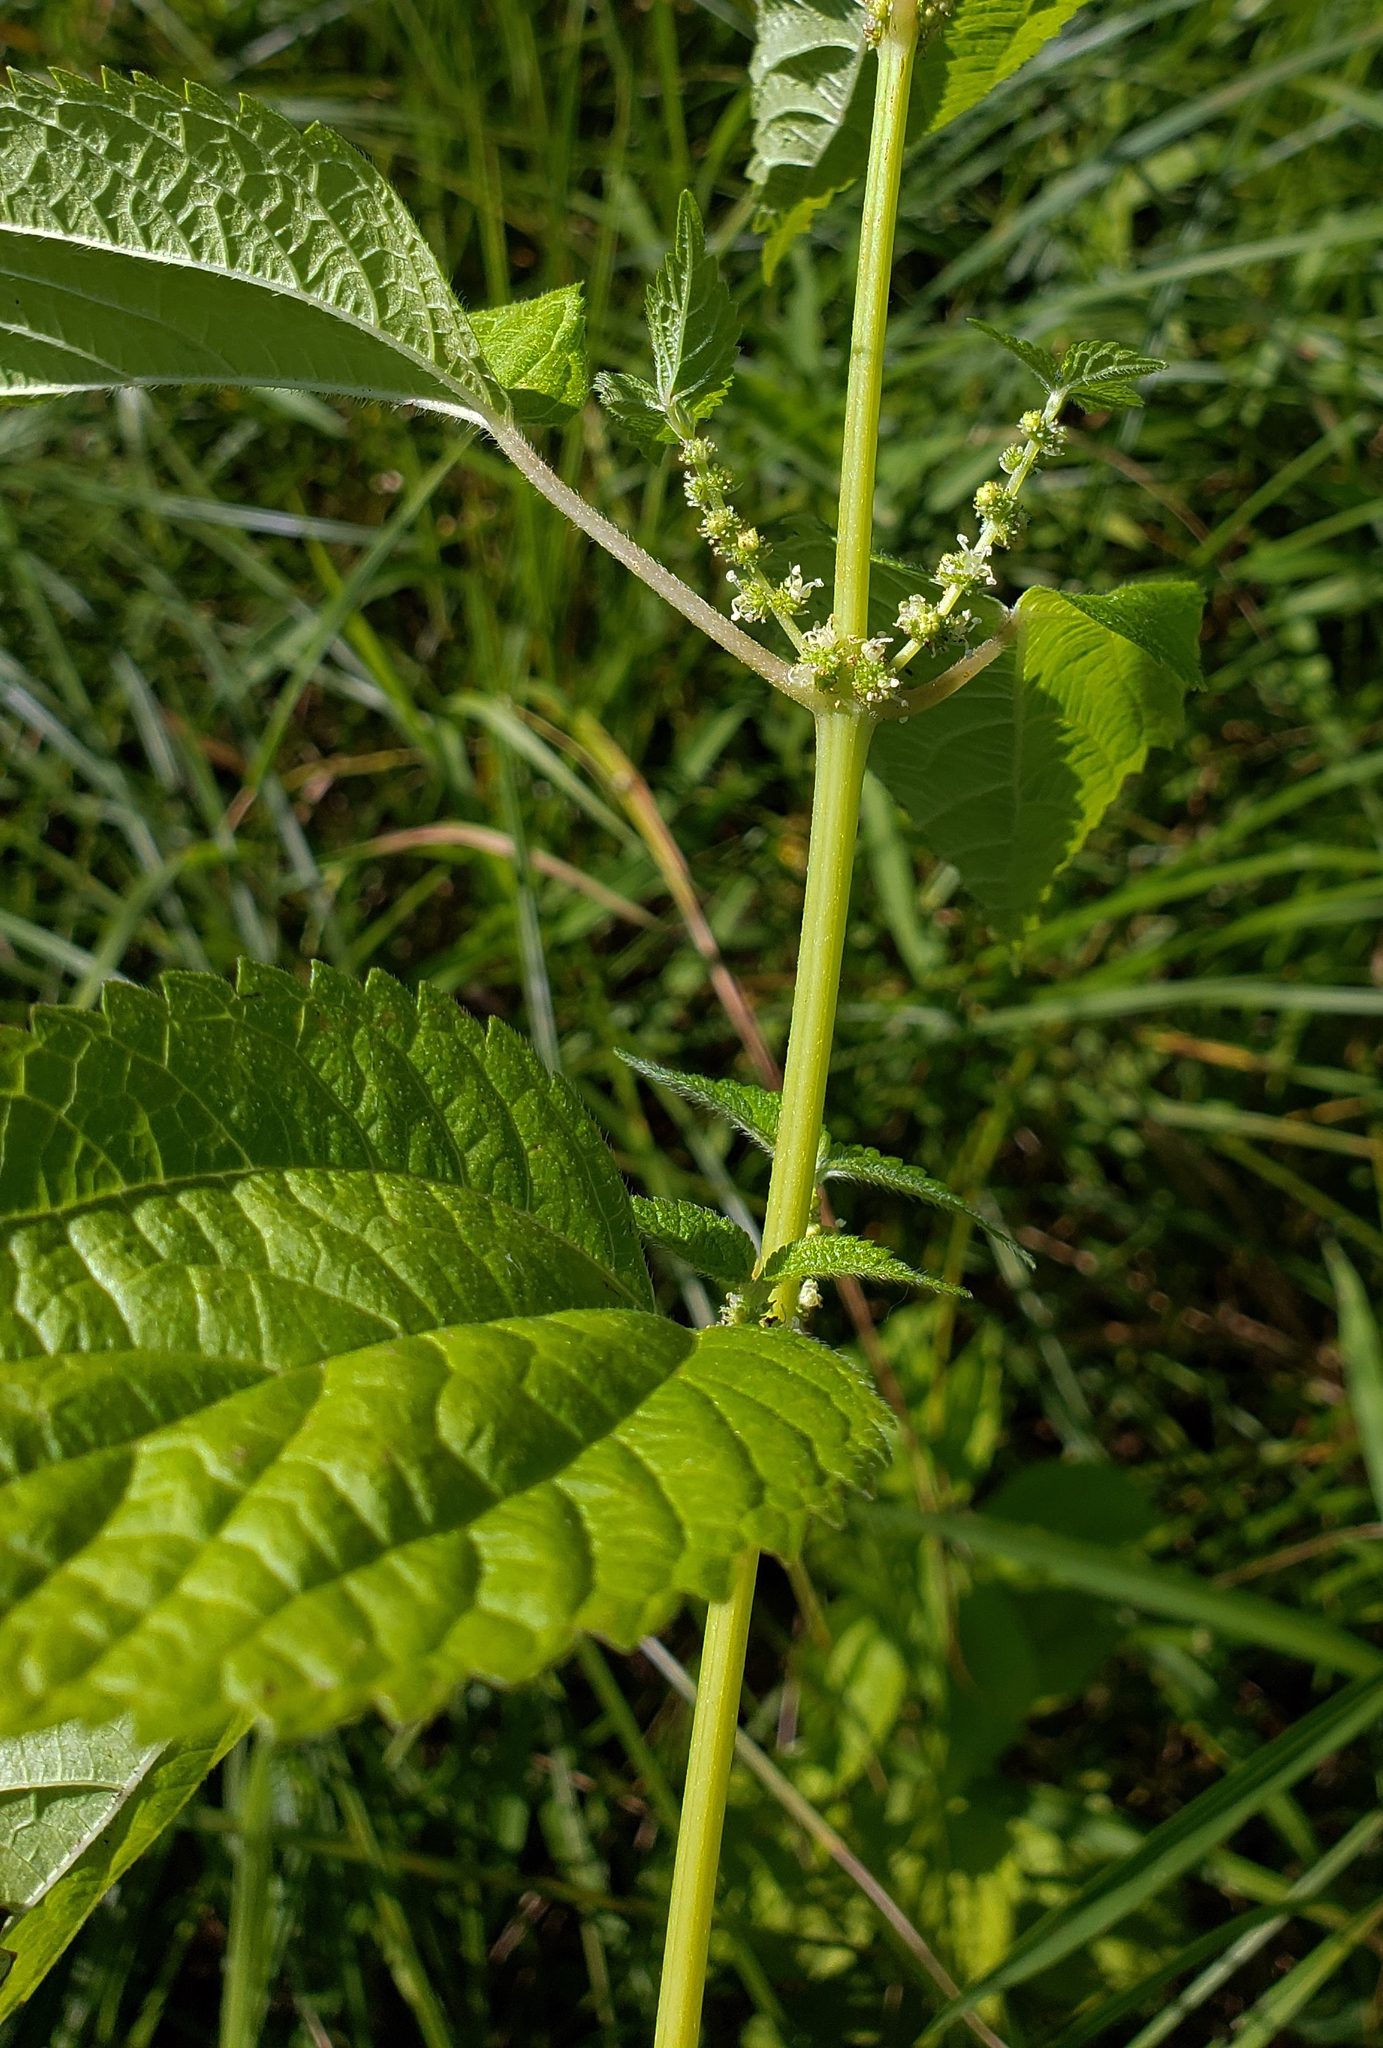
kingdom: Plantae
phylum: Tracheophyta
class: Magnoliopsida
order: Rosales
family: Urticaceae
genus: Boehmeria
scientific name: Boehmeria cylindrica
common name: Bog-hemp
